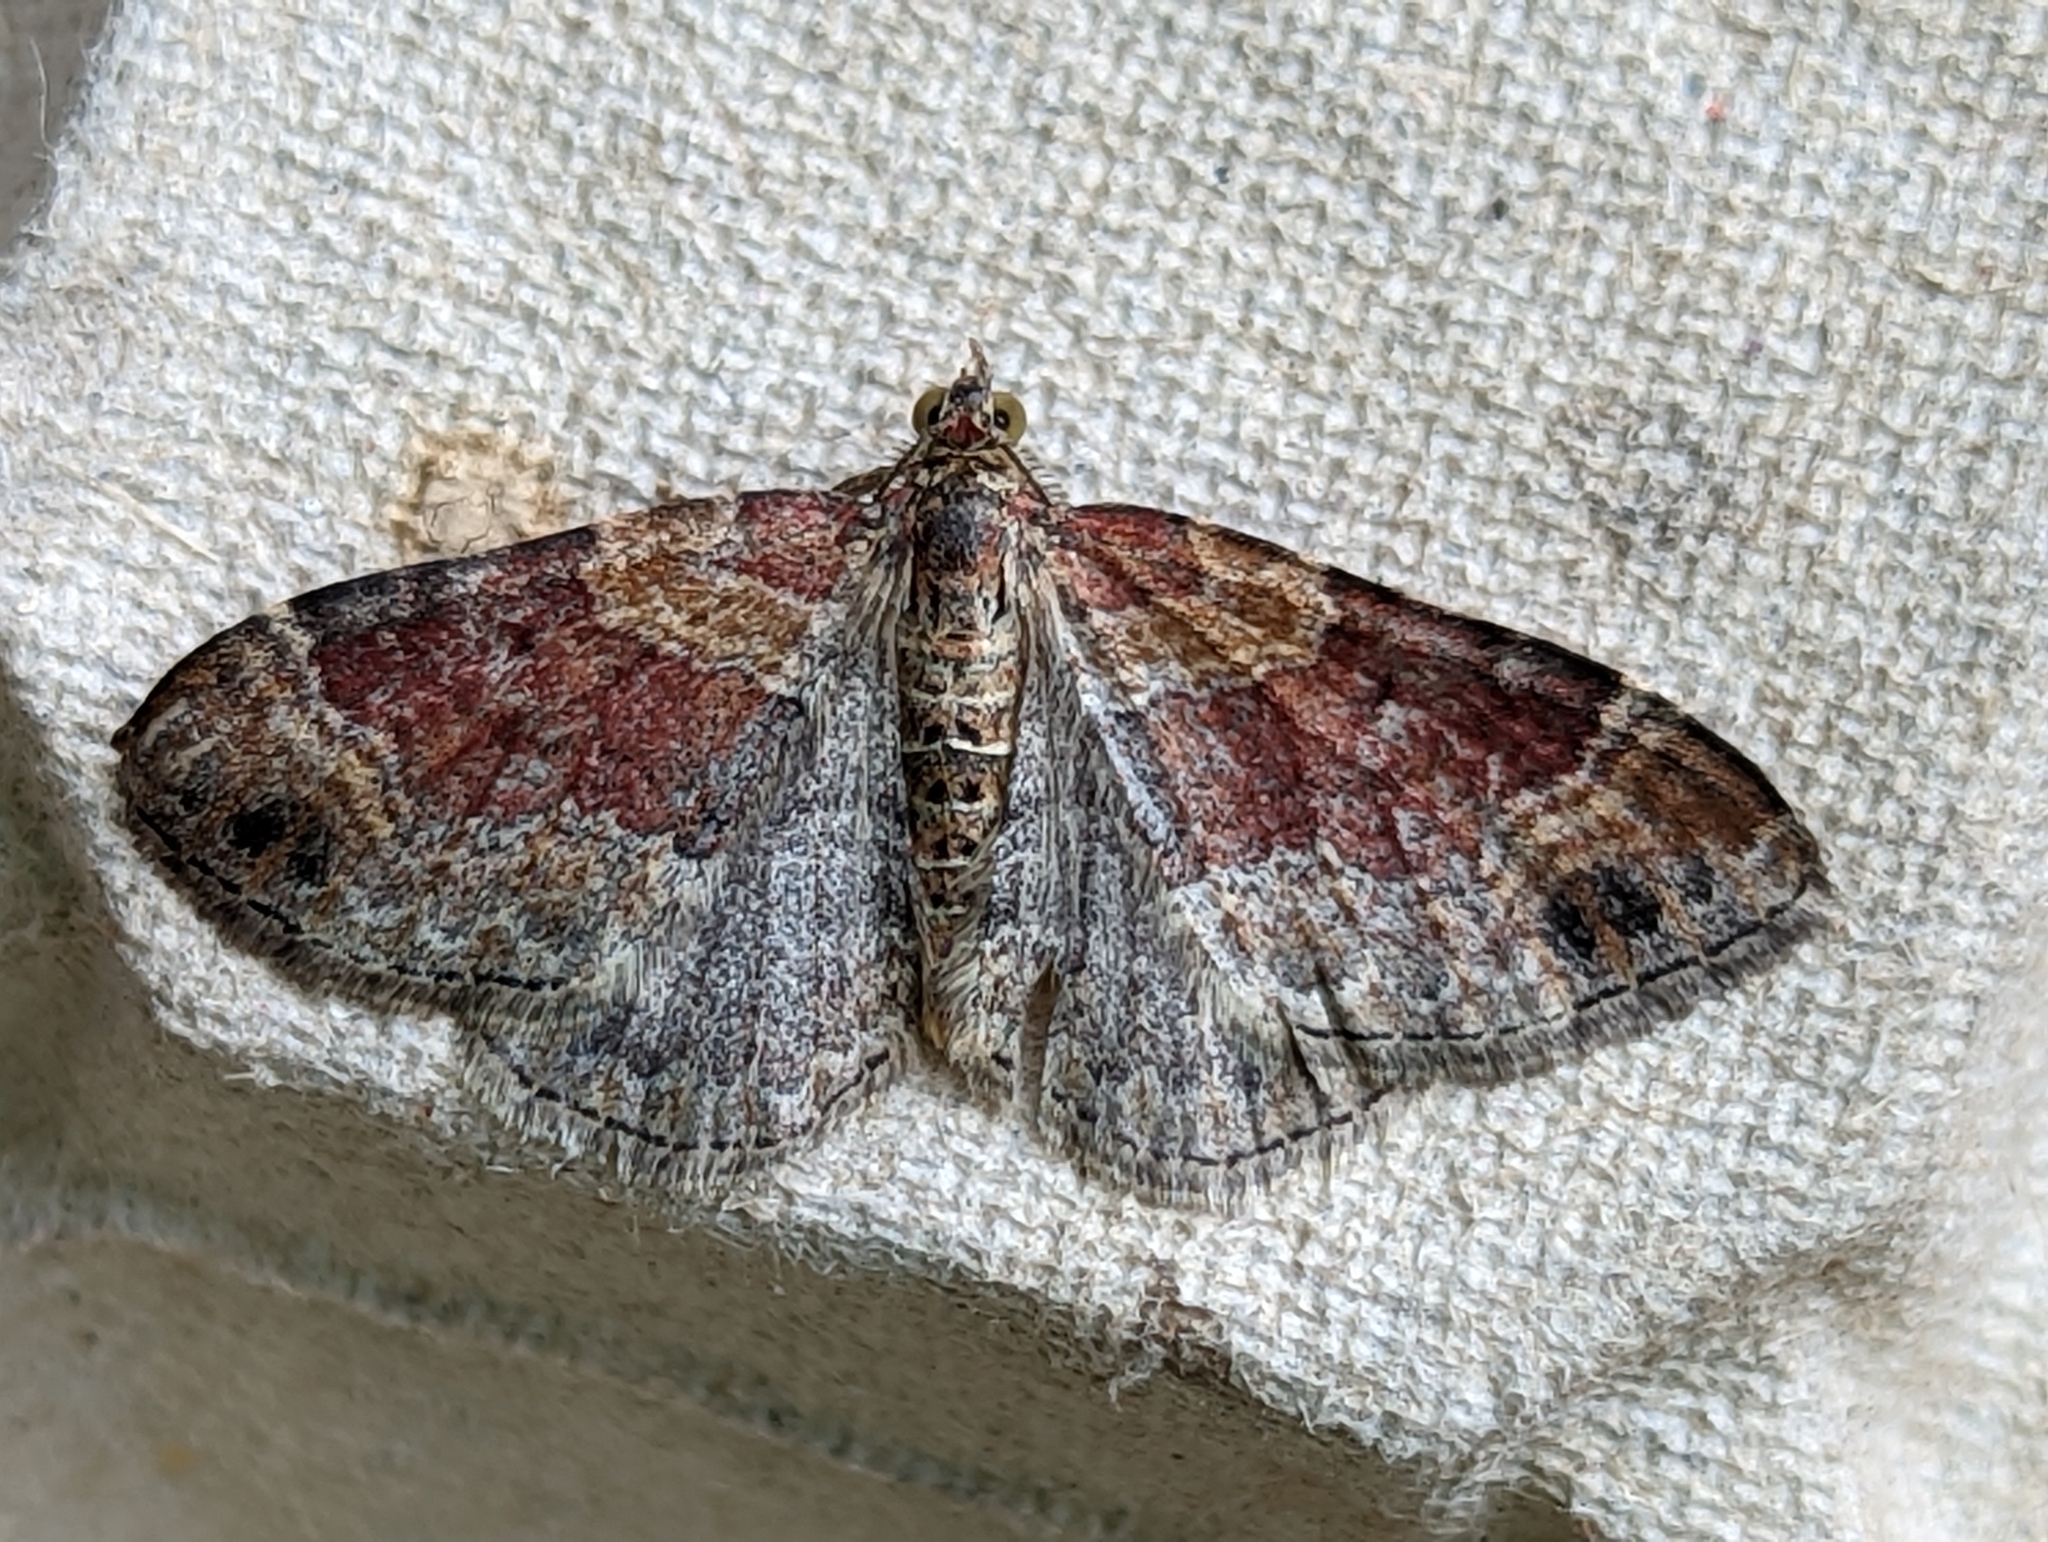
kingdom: Animalia
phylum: Arthropoda
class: Insecta
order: Lepidoptera
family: Geometridae
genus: Xanthorhoe
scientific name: Xanthorhoe spadicearia
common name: Red twin-spot carpet
